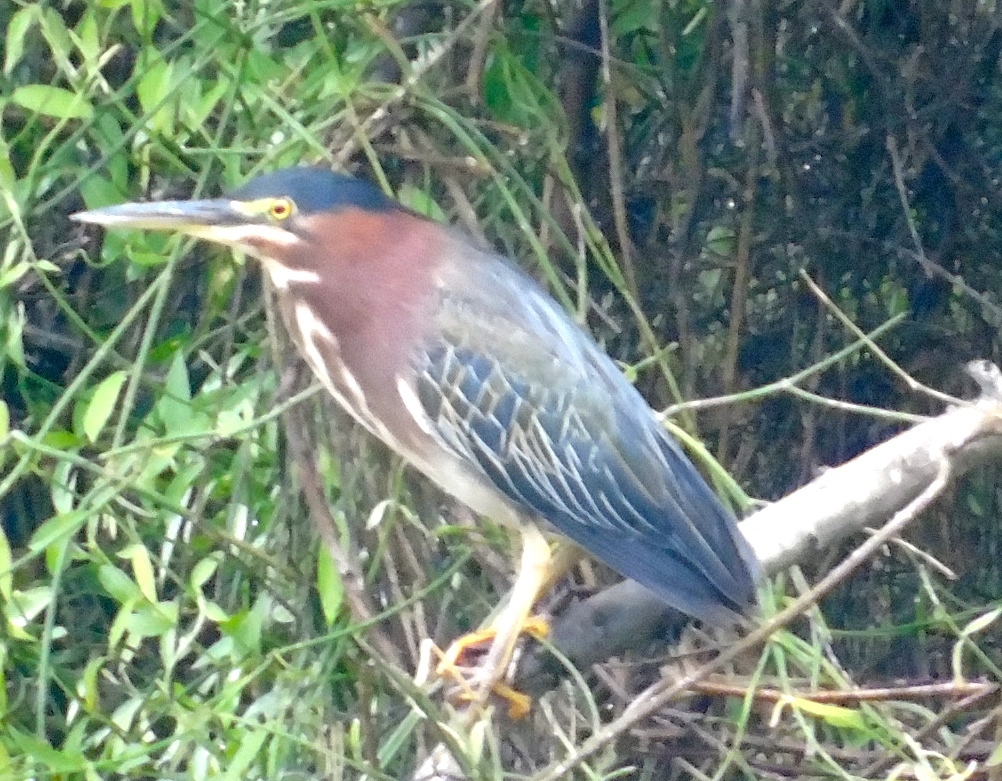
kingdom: Animalia
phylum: Chordata
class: Aves
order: Pelecaniformes
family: Ardeidae
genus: Butorides
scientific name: Butorides virescens
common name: Green heron
